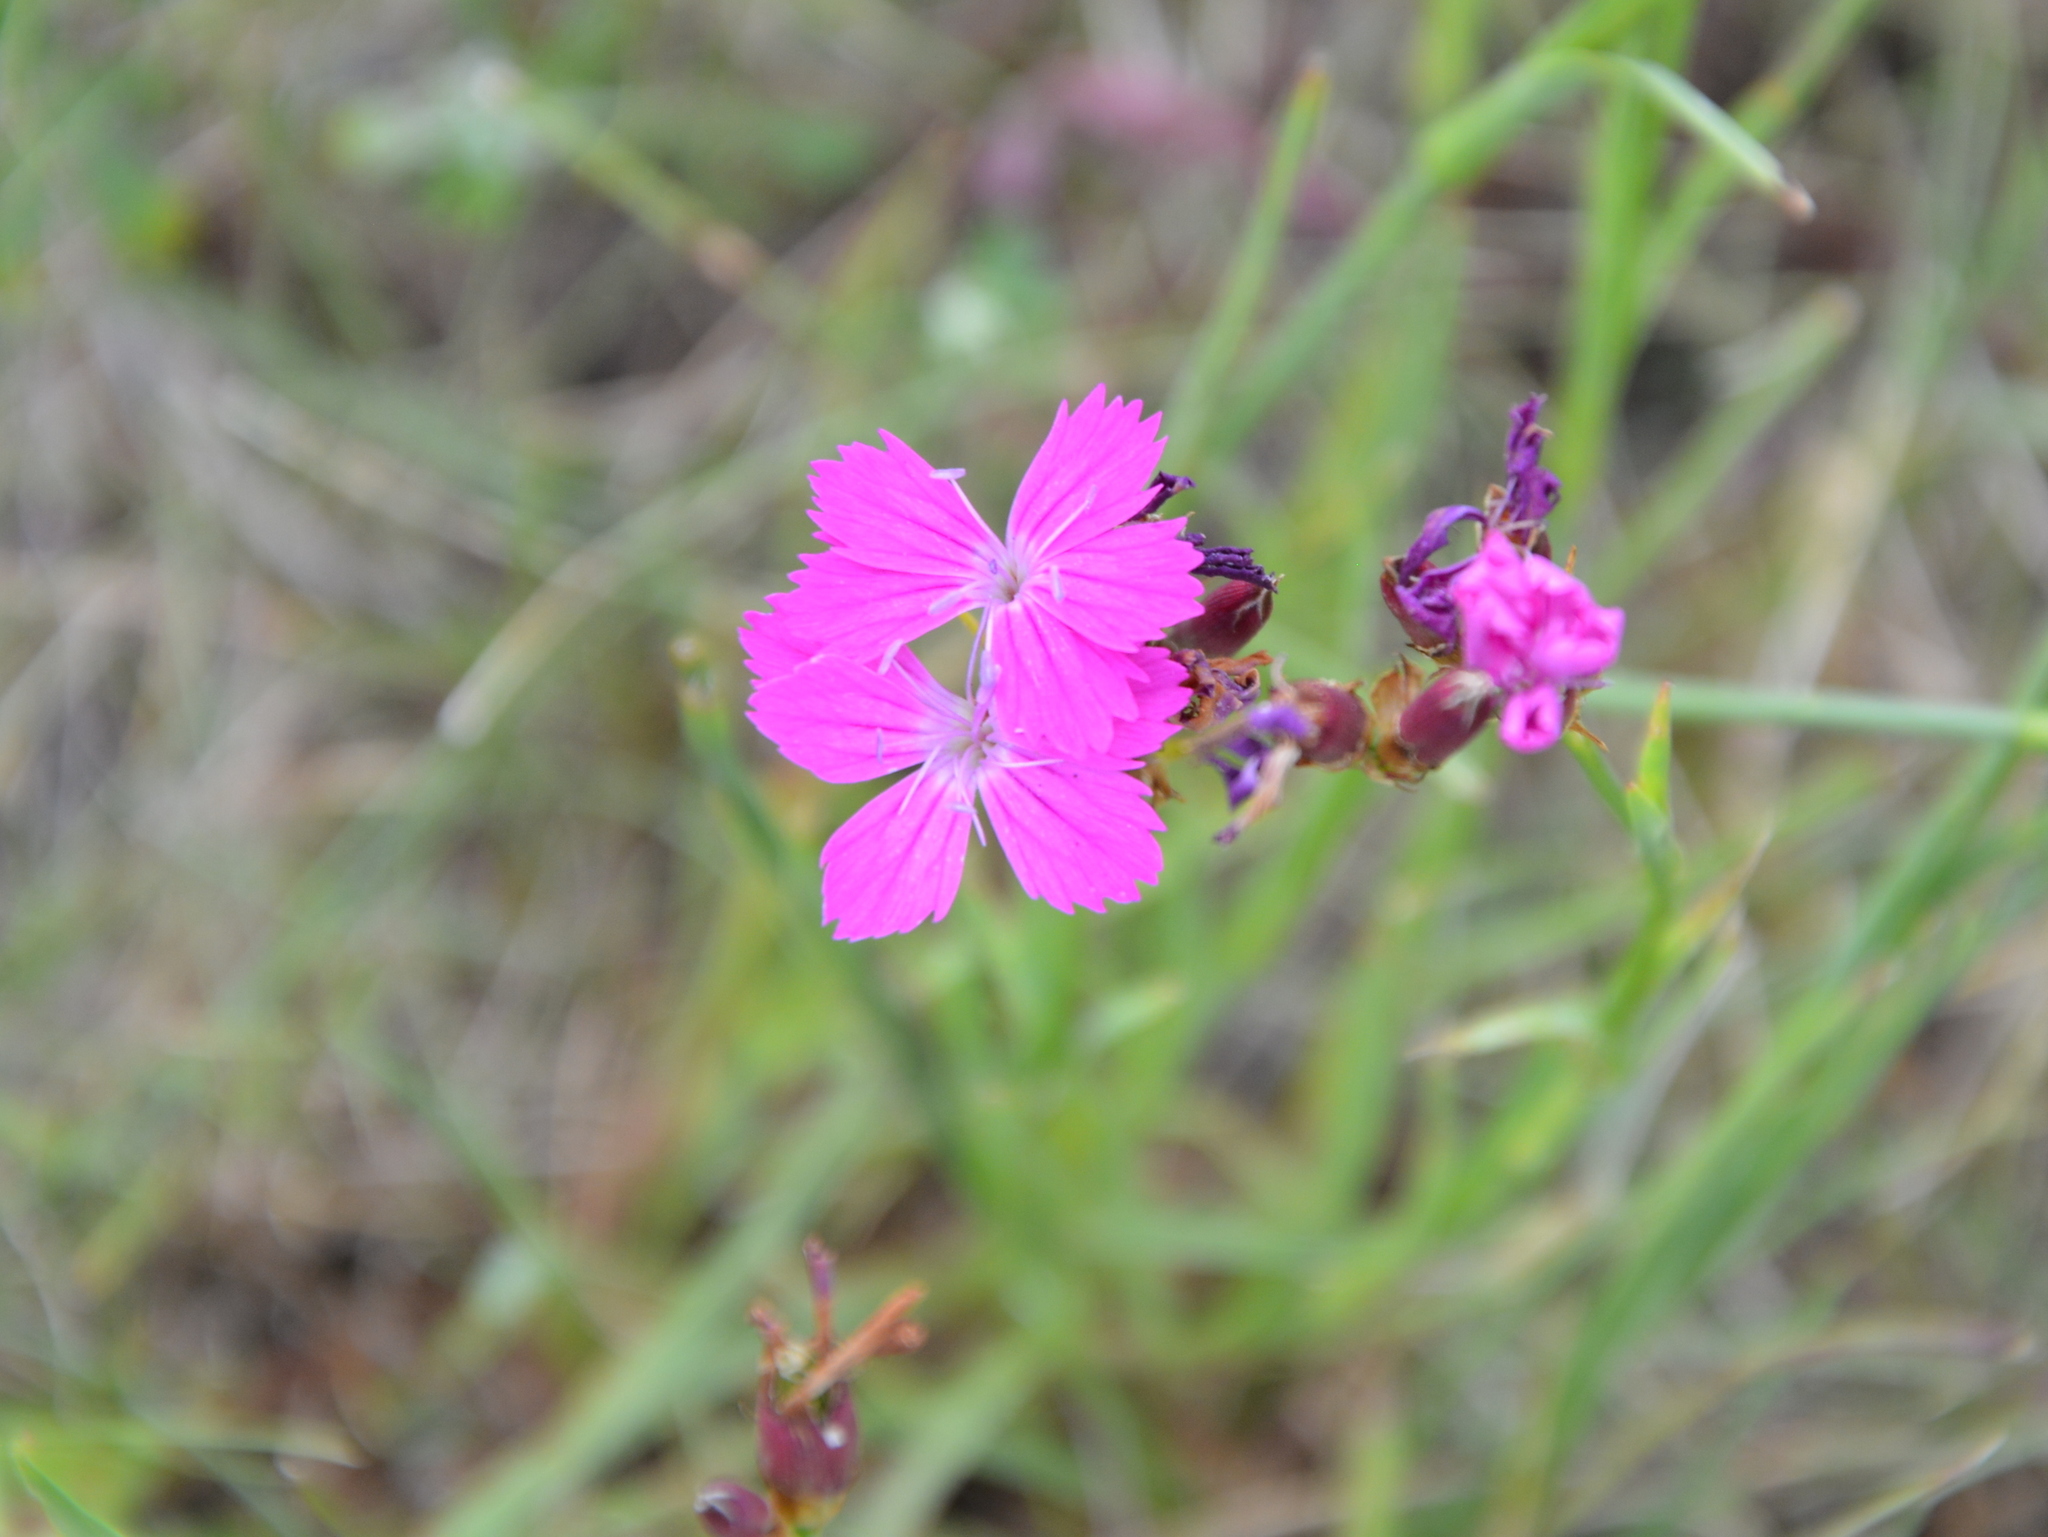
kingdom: Plantae
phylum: Tracheophyta
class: Magnoliopsida
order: Caryophyllales
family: Caryophyllaceae
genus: Dianthus
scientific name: Dianthus carthusianorum
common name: Carthusian pink
